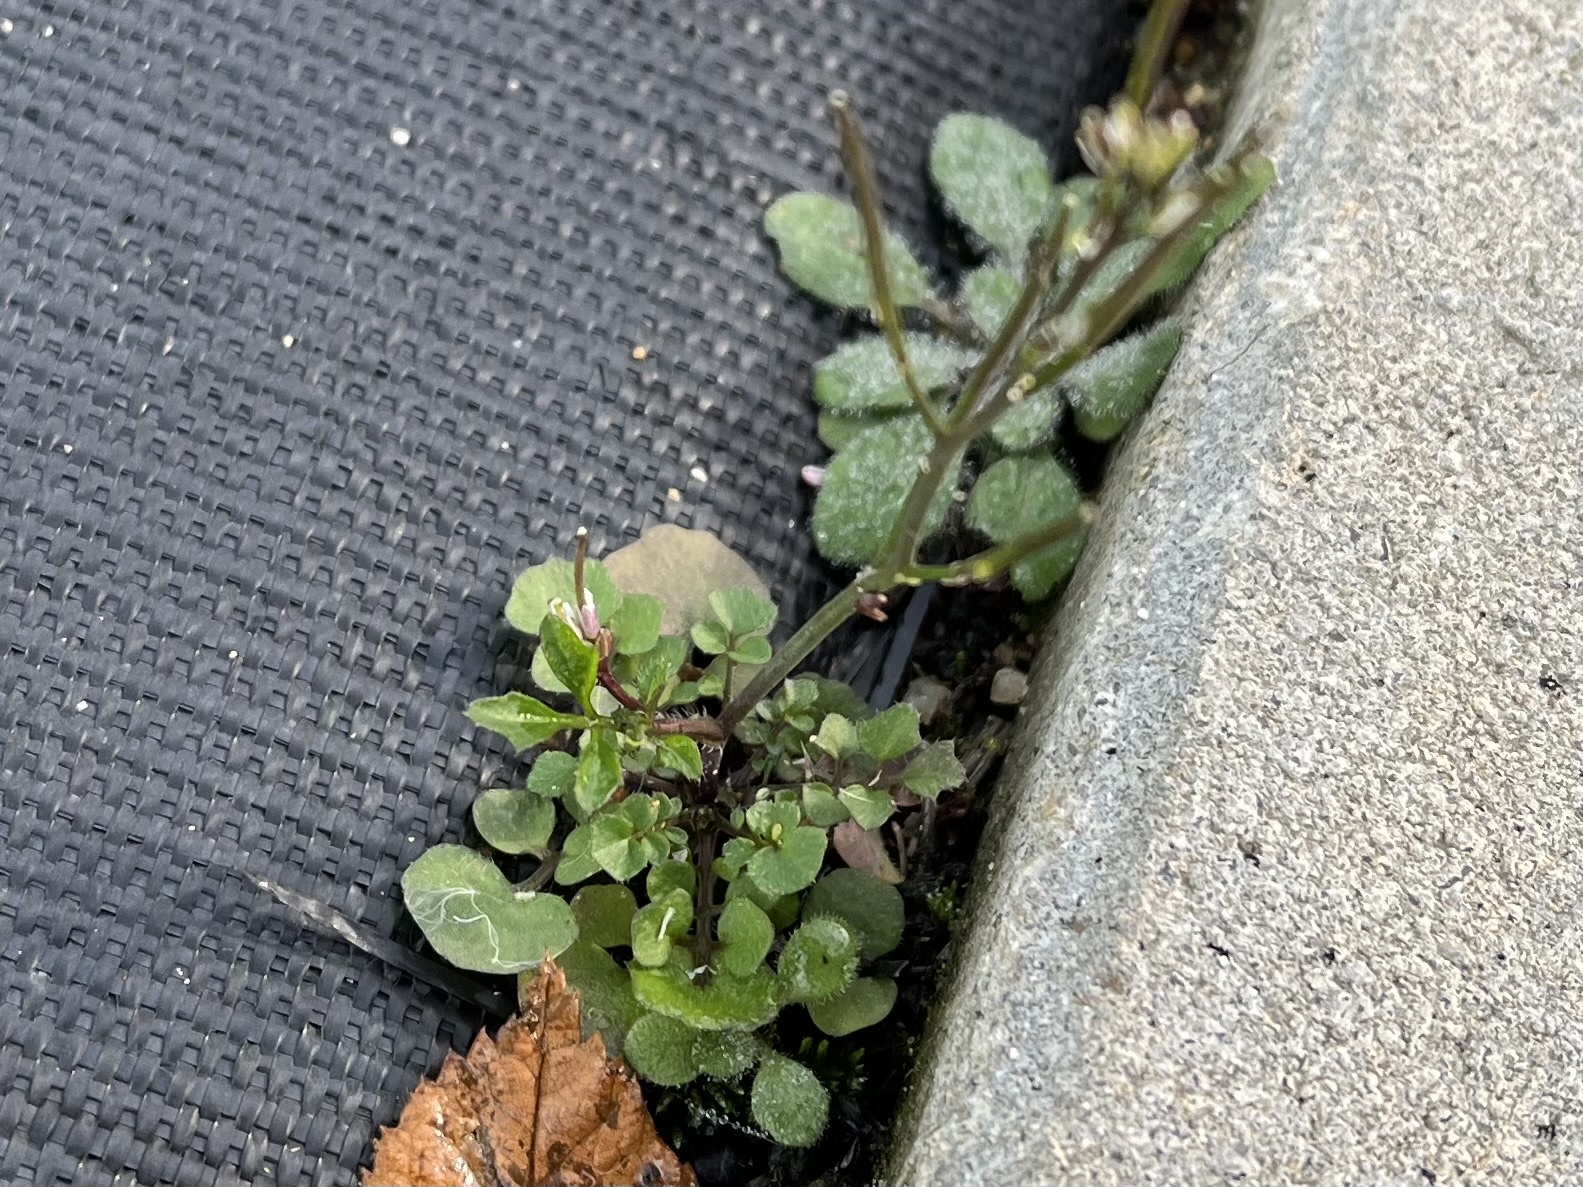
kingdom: Plantae
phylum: Tracheophyta
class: Magnoliopsida
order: Brassicales
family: Brassicaceae
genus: Cardamine
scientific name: Cardamine hirsuta
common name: Hairy bittercress
